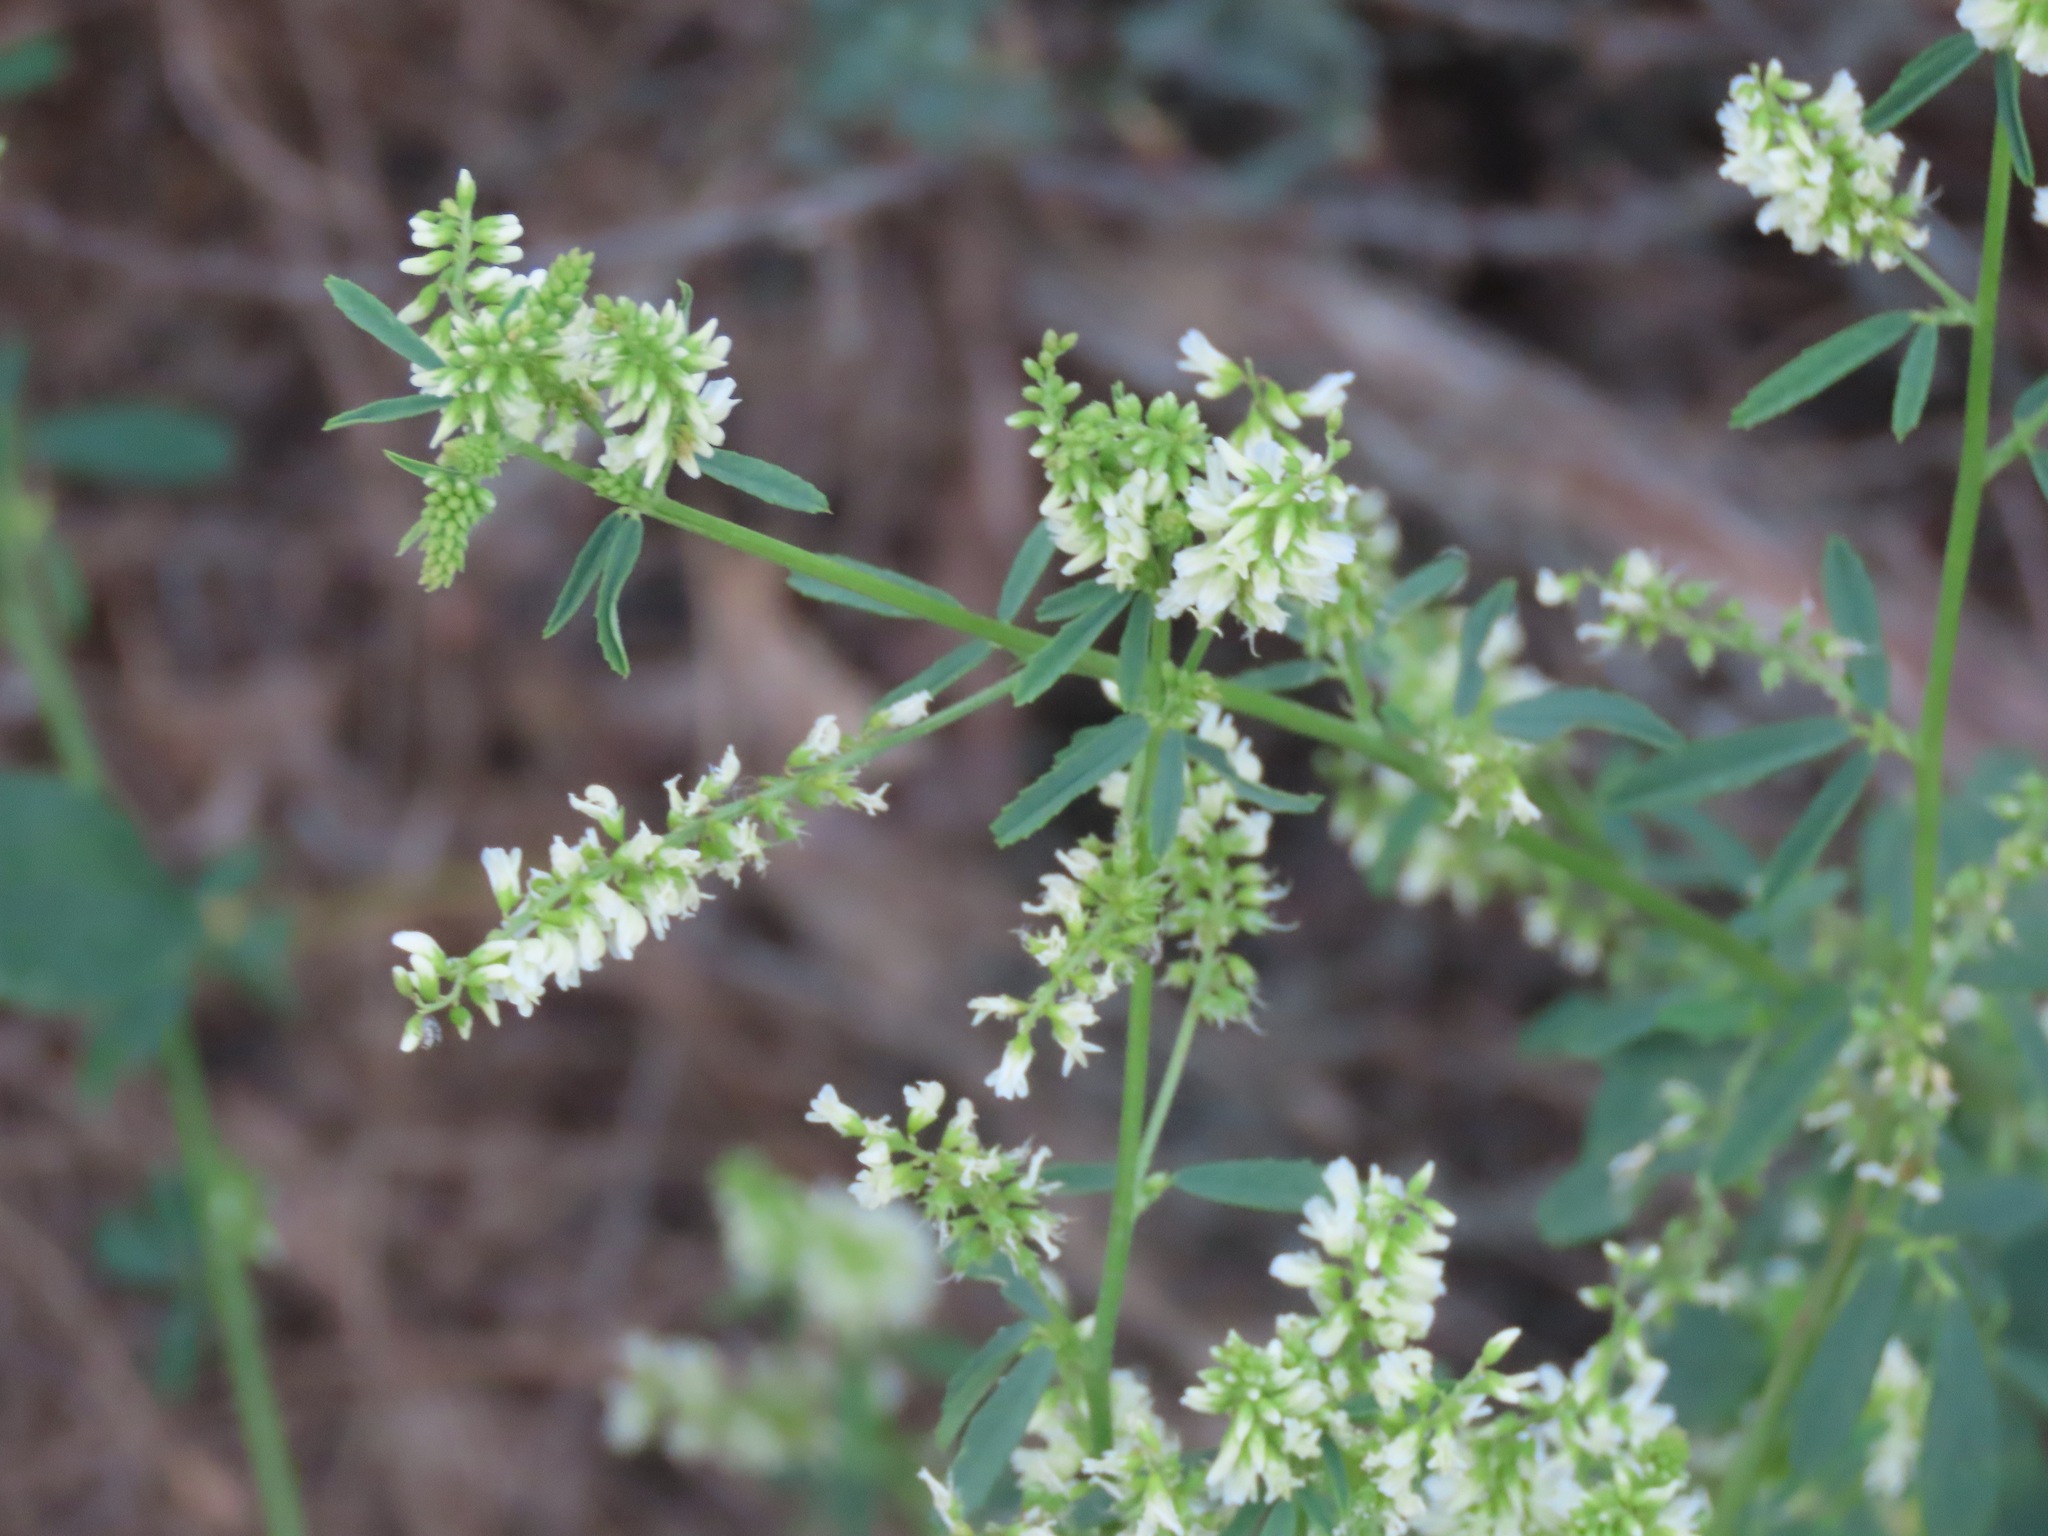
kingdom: Plantae
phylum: Tracheophyta
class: Magnoliopsida
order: Fabales
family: Fabaceae
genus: Melilotus
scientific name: Melilotus albus
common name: White melilot
